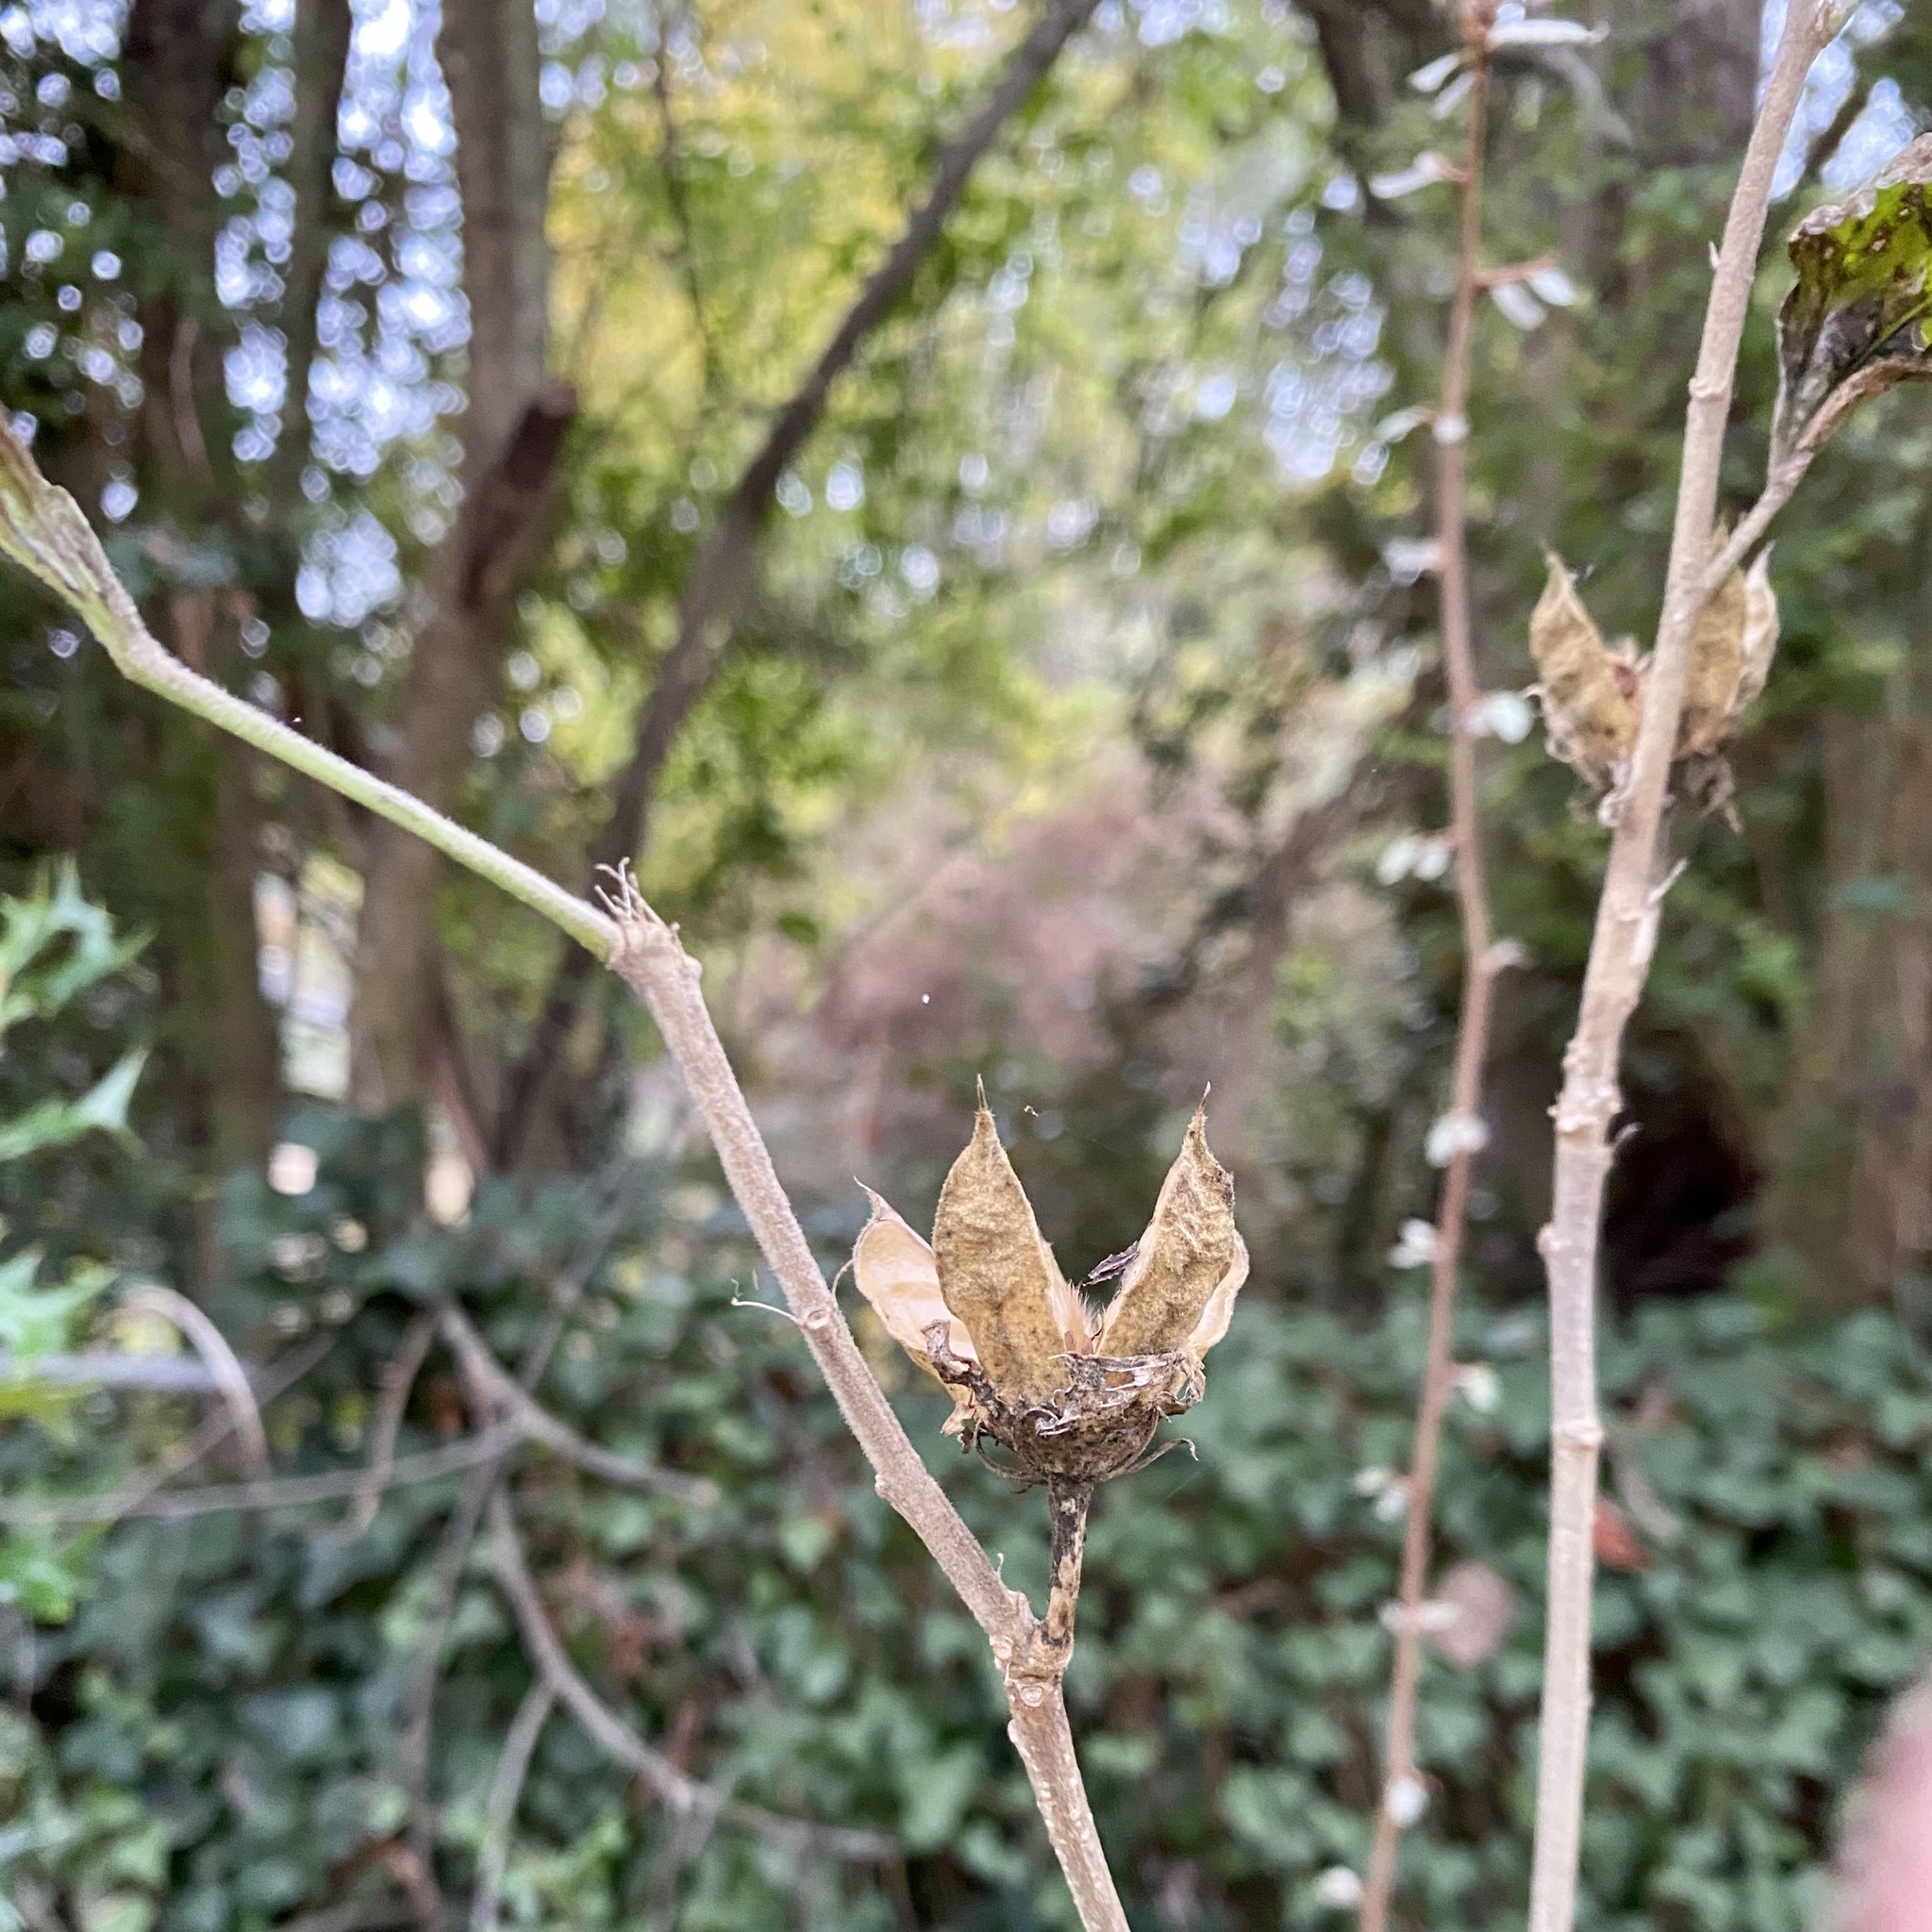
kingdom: Plantae
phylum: Tracheophyta
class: Magnoliopsida
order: Malvales
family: Malvaceae
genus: Hibiscus
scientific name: Hibiscus syriacus
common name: Syrian ketmia
